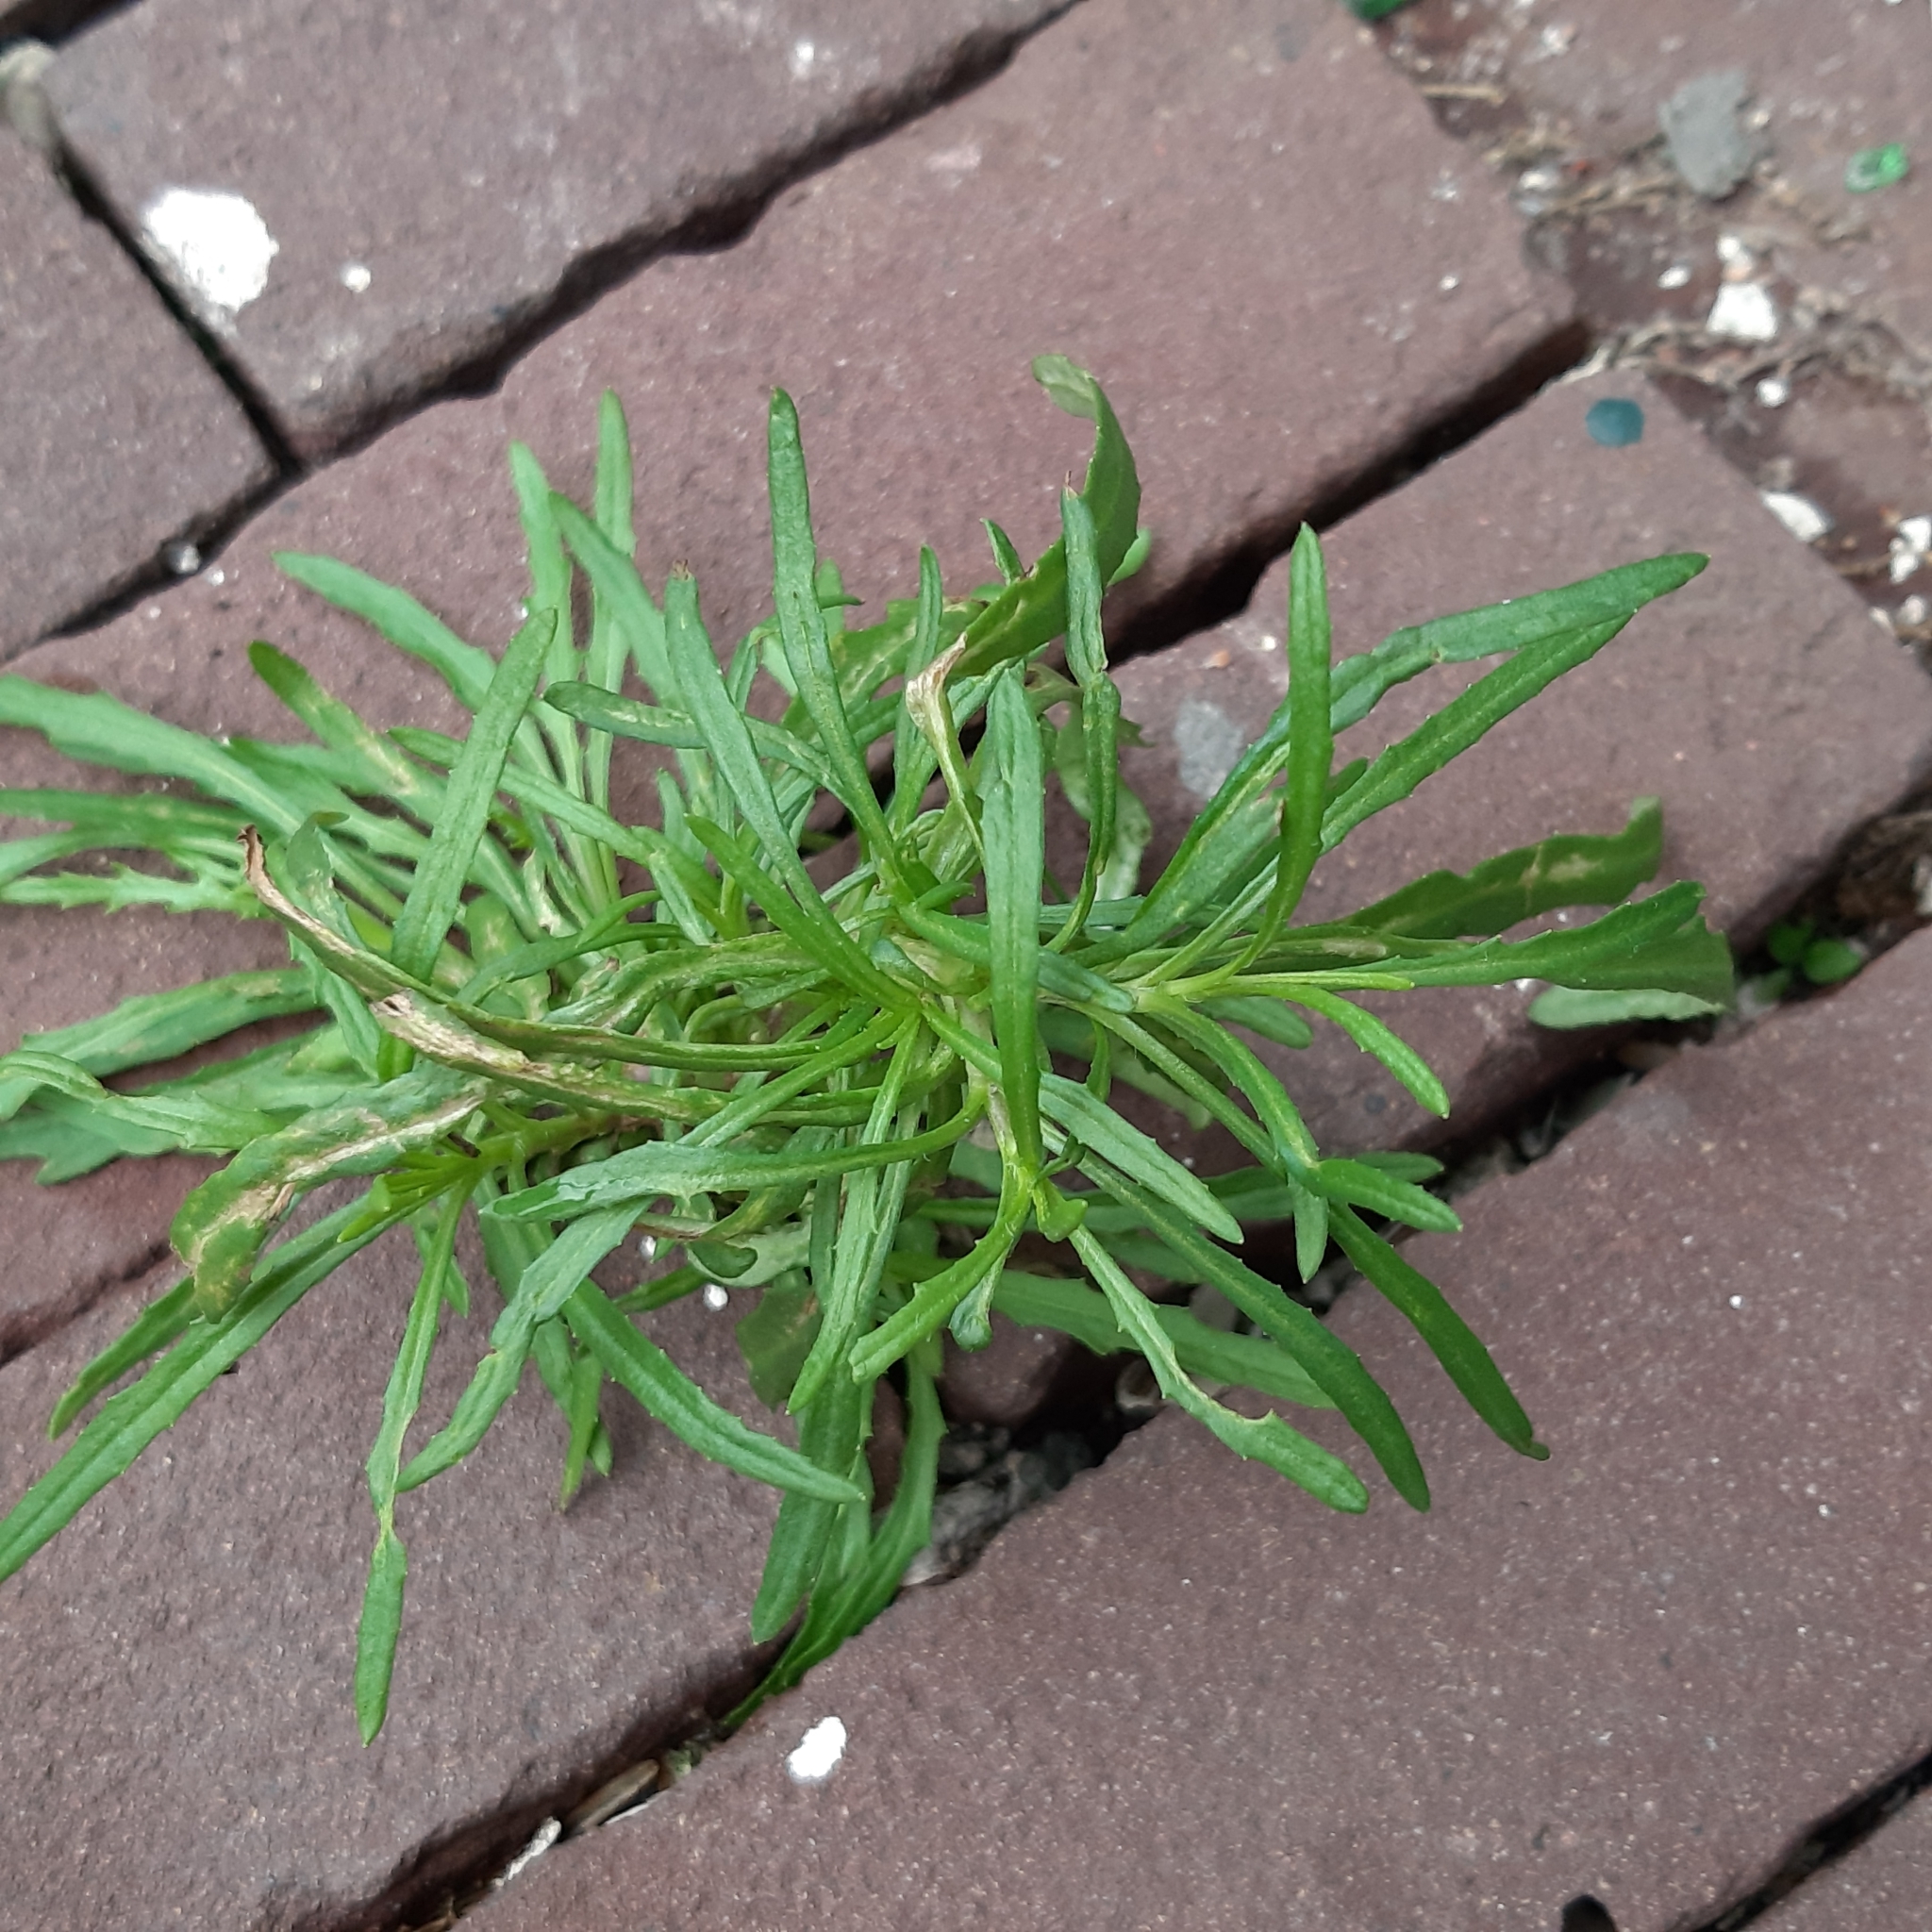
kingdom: Plantae
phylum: Tracheophyta
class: Magnoliopsida
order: Asterales
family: Asteraceae
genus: Senecio
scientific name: Senecio inaequidens
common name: Narrow-leaved ragwort
